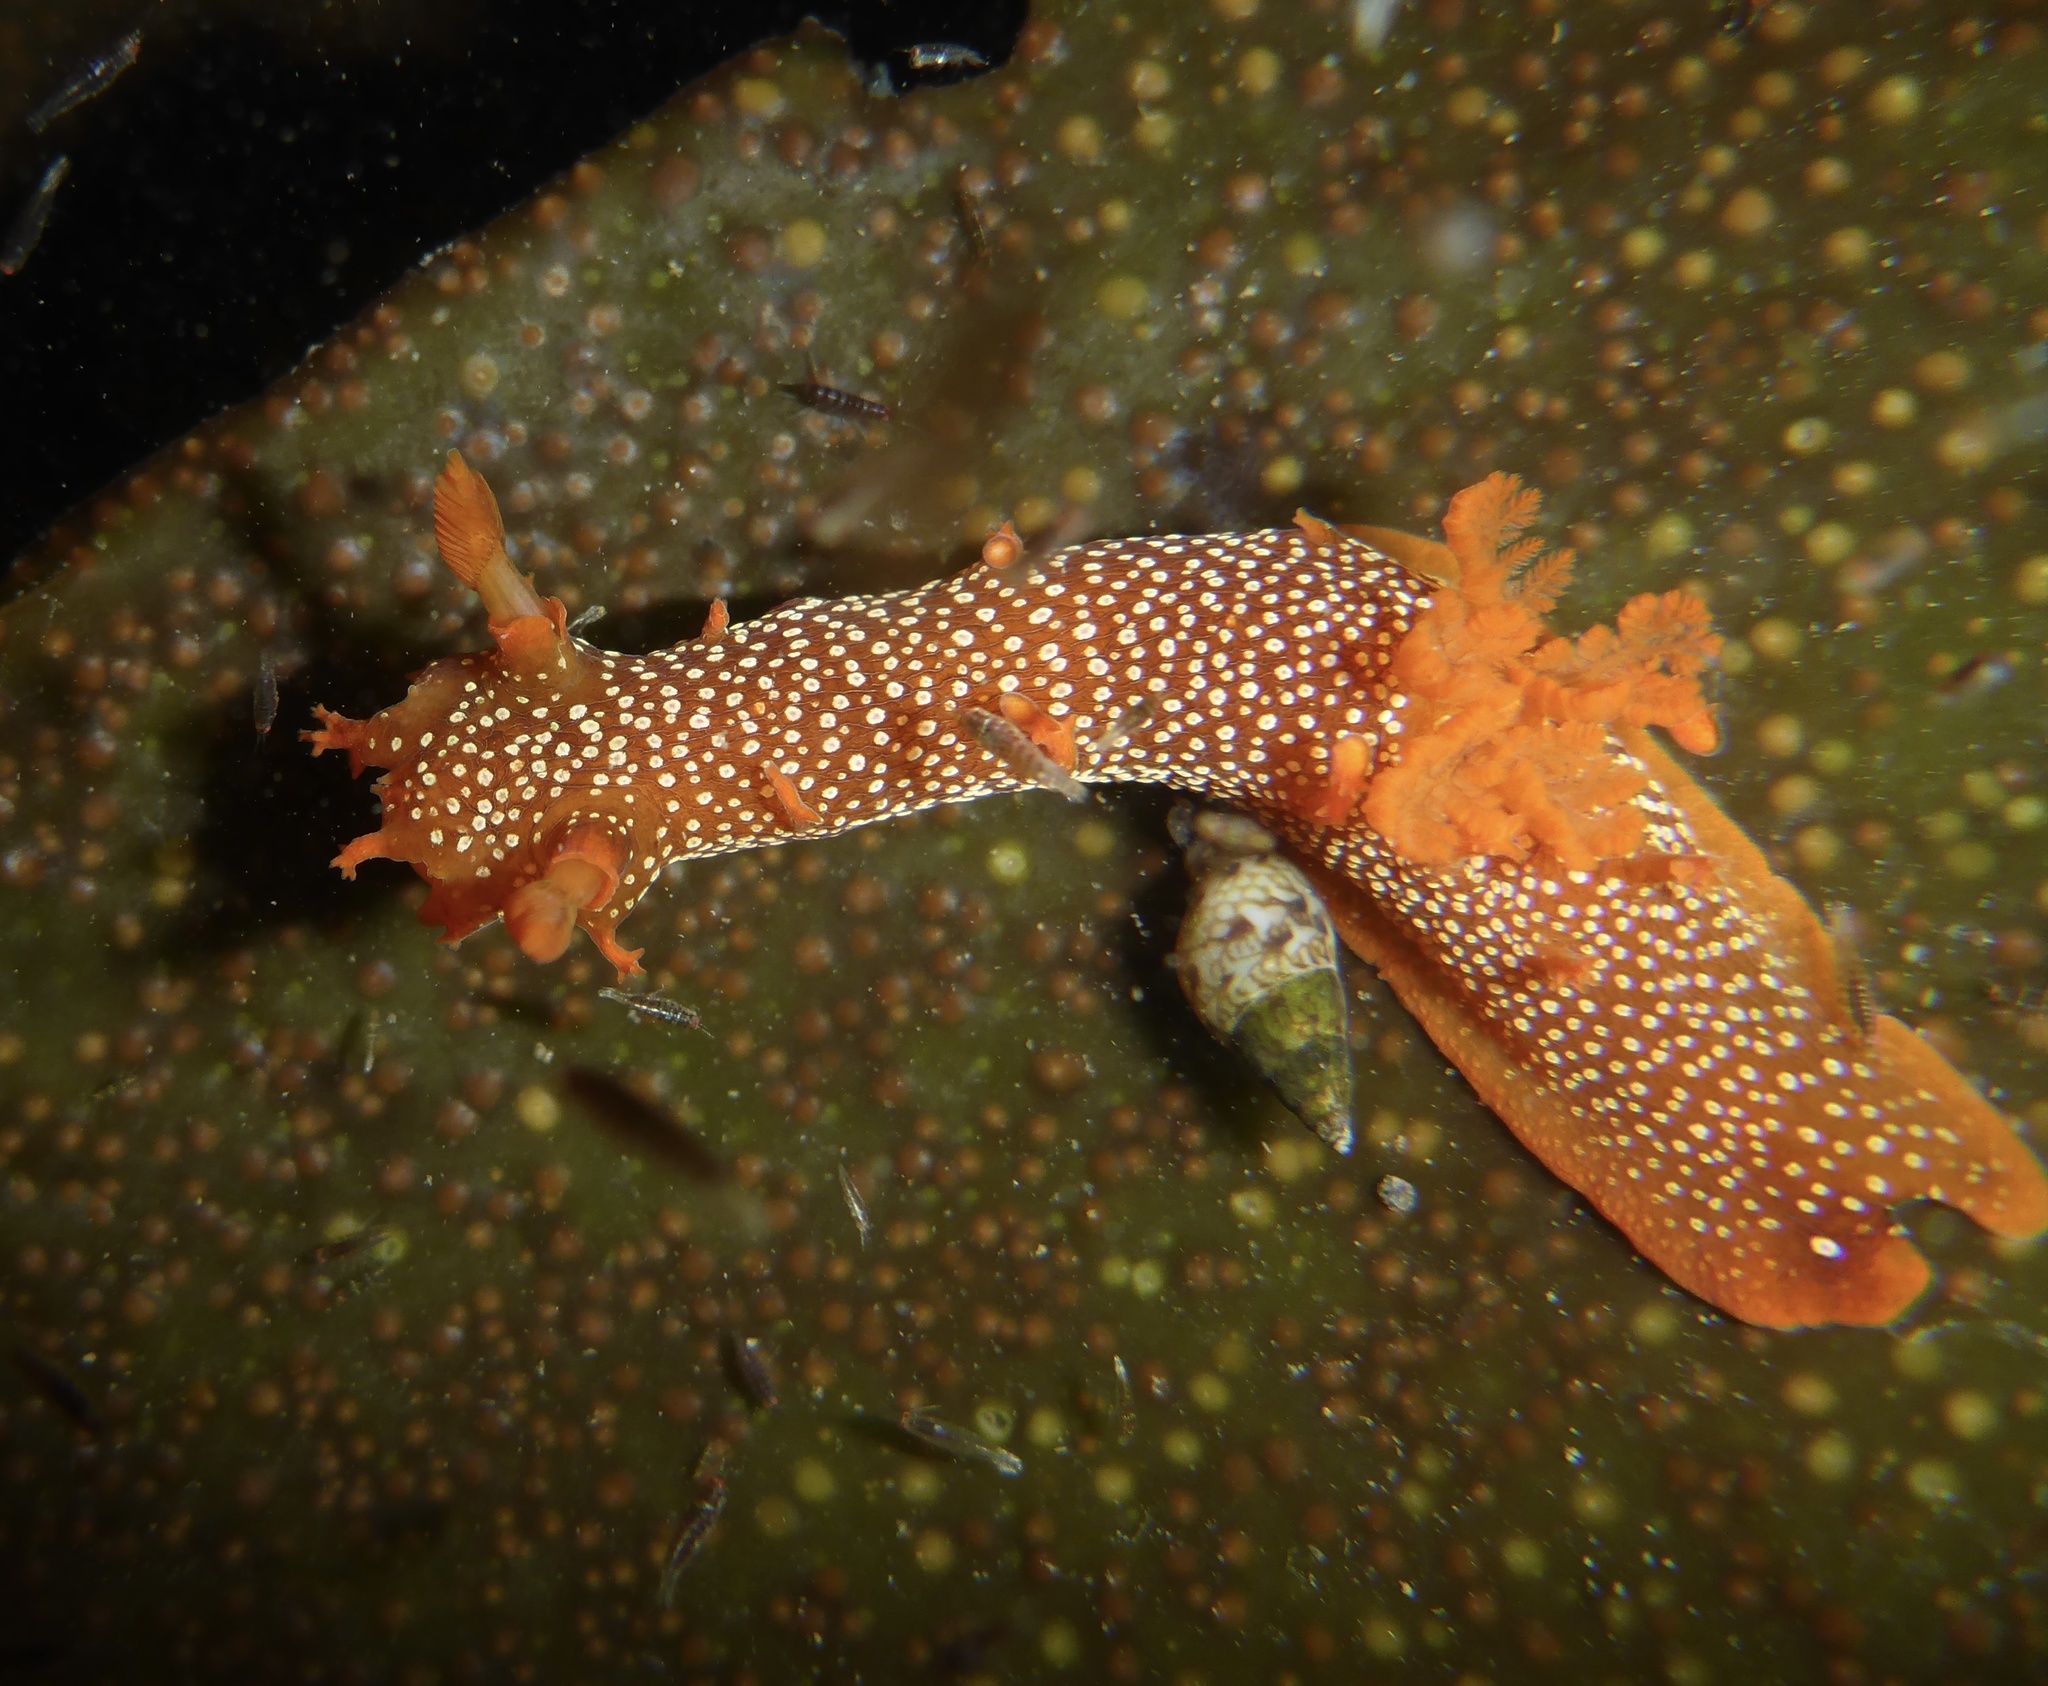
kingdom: Animalia
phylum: Mollusca
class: Gastropoda
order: Nudibranchia
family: Polyceridae
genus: Triopha
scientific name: Triopha maculata
